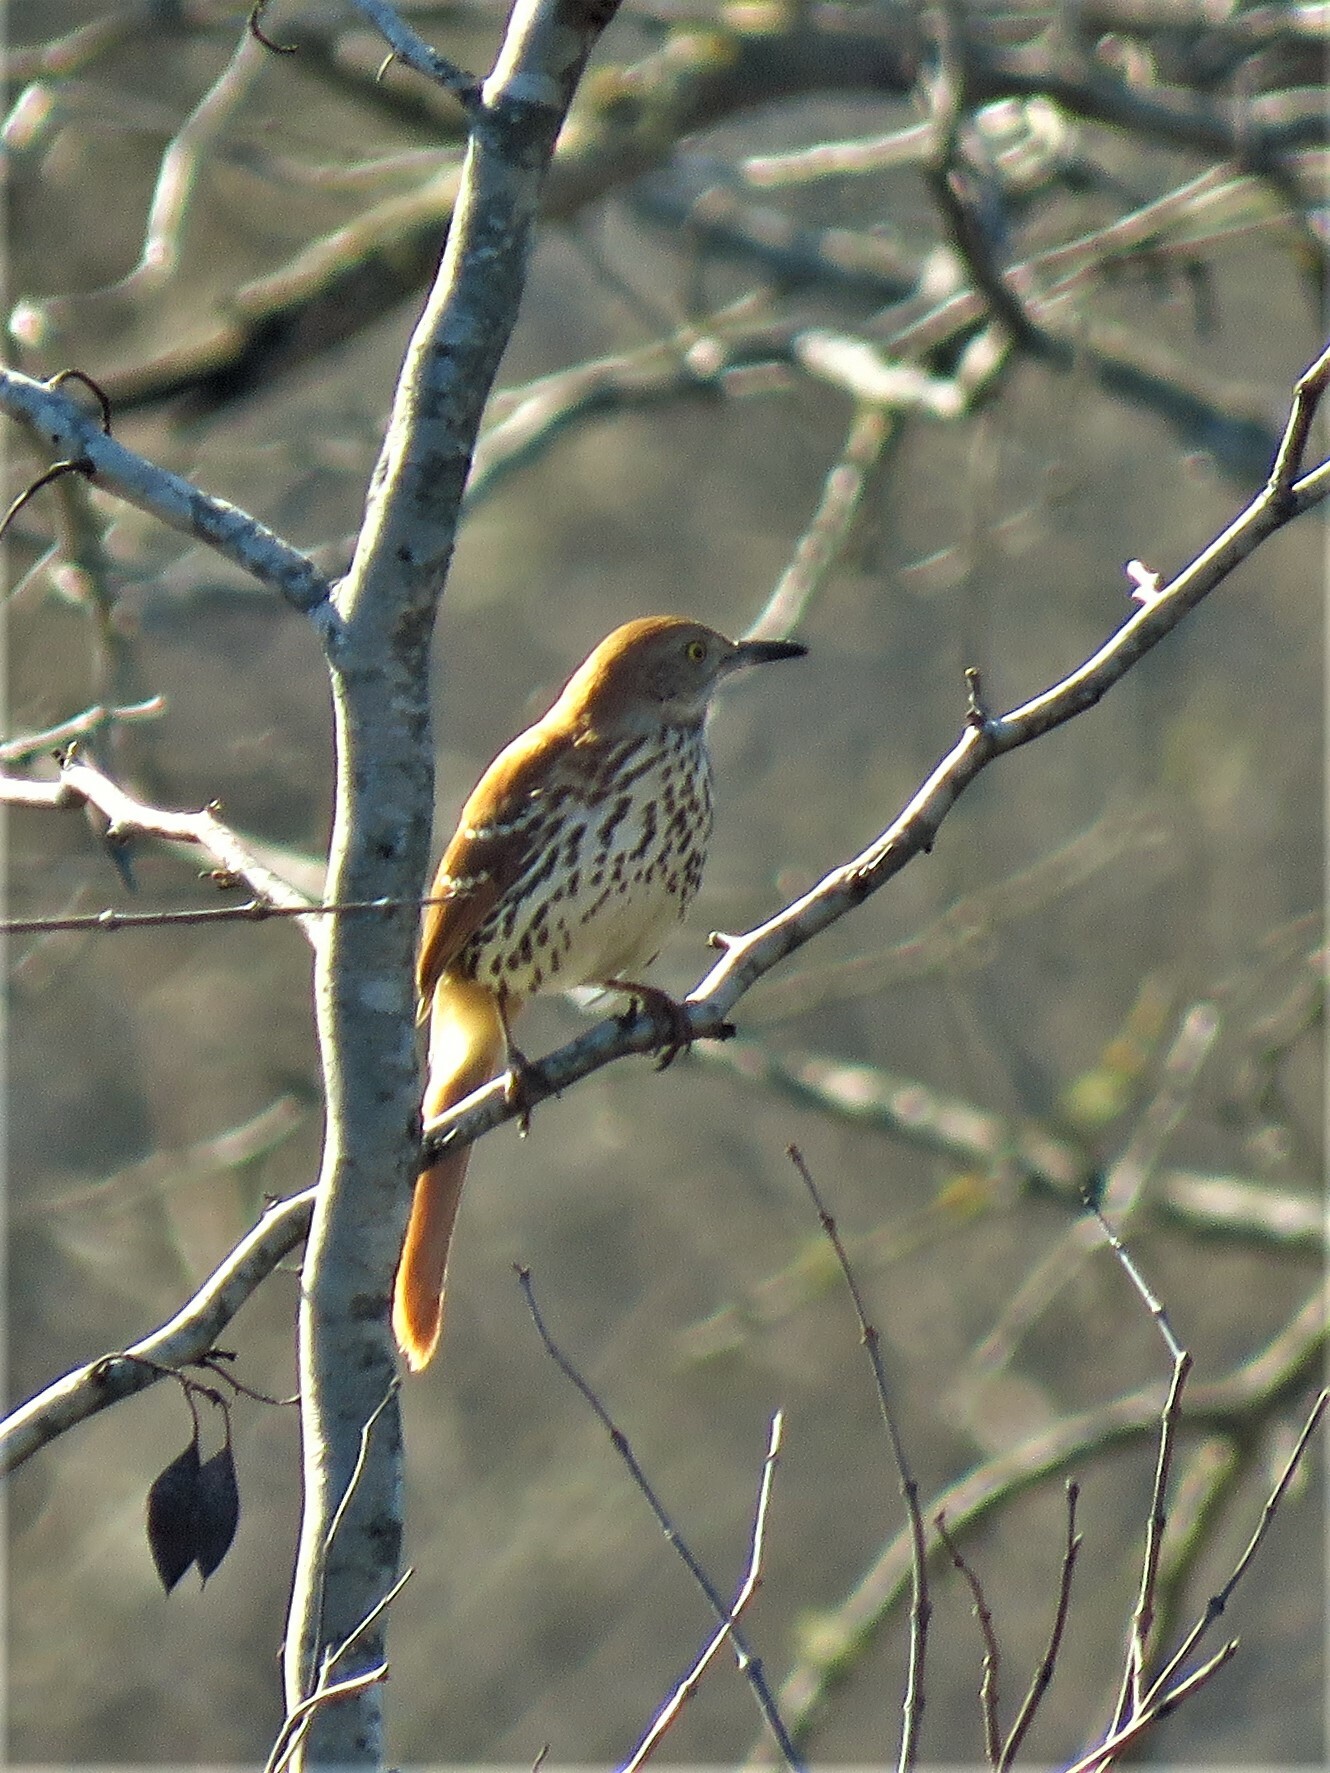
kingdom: Animalia
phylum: Chordata
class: Aves
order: Passeriformes
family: Mimidae
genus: Toxostoma
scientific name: Toxostoma rufum
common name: Brown thrasher
